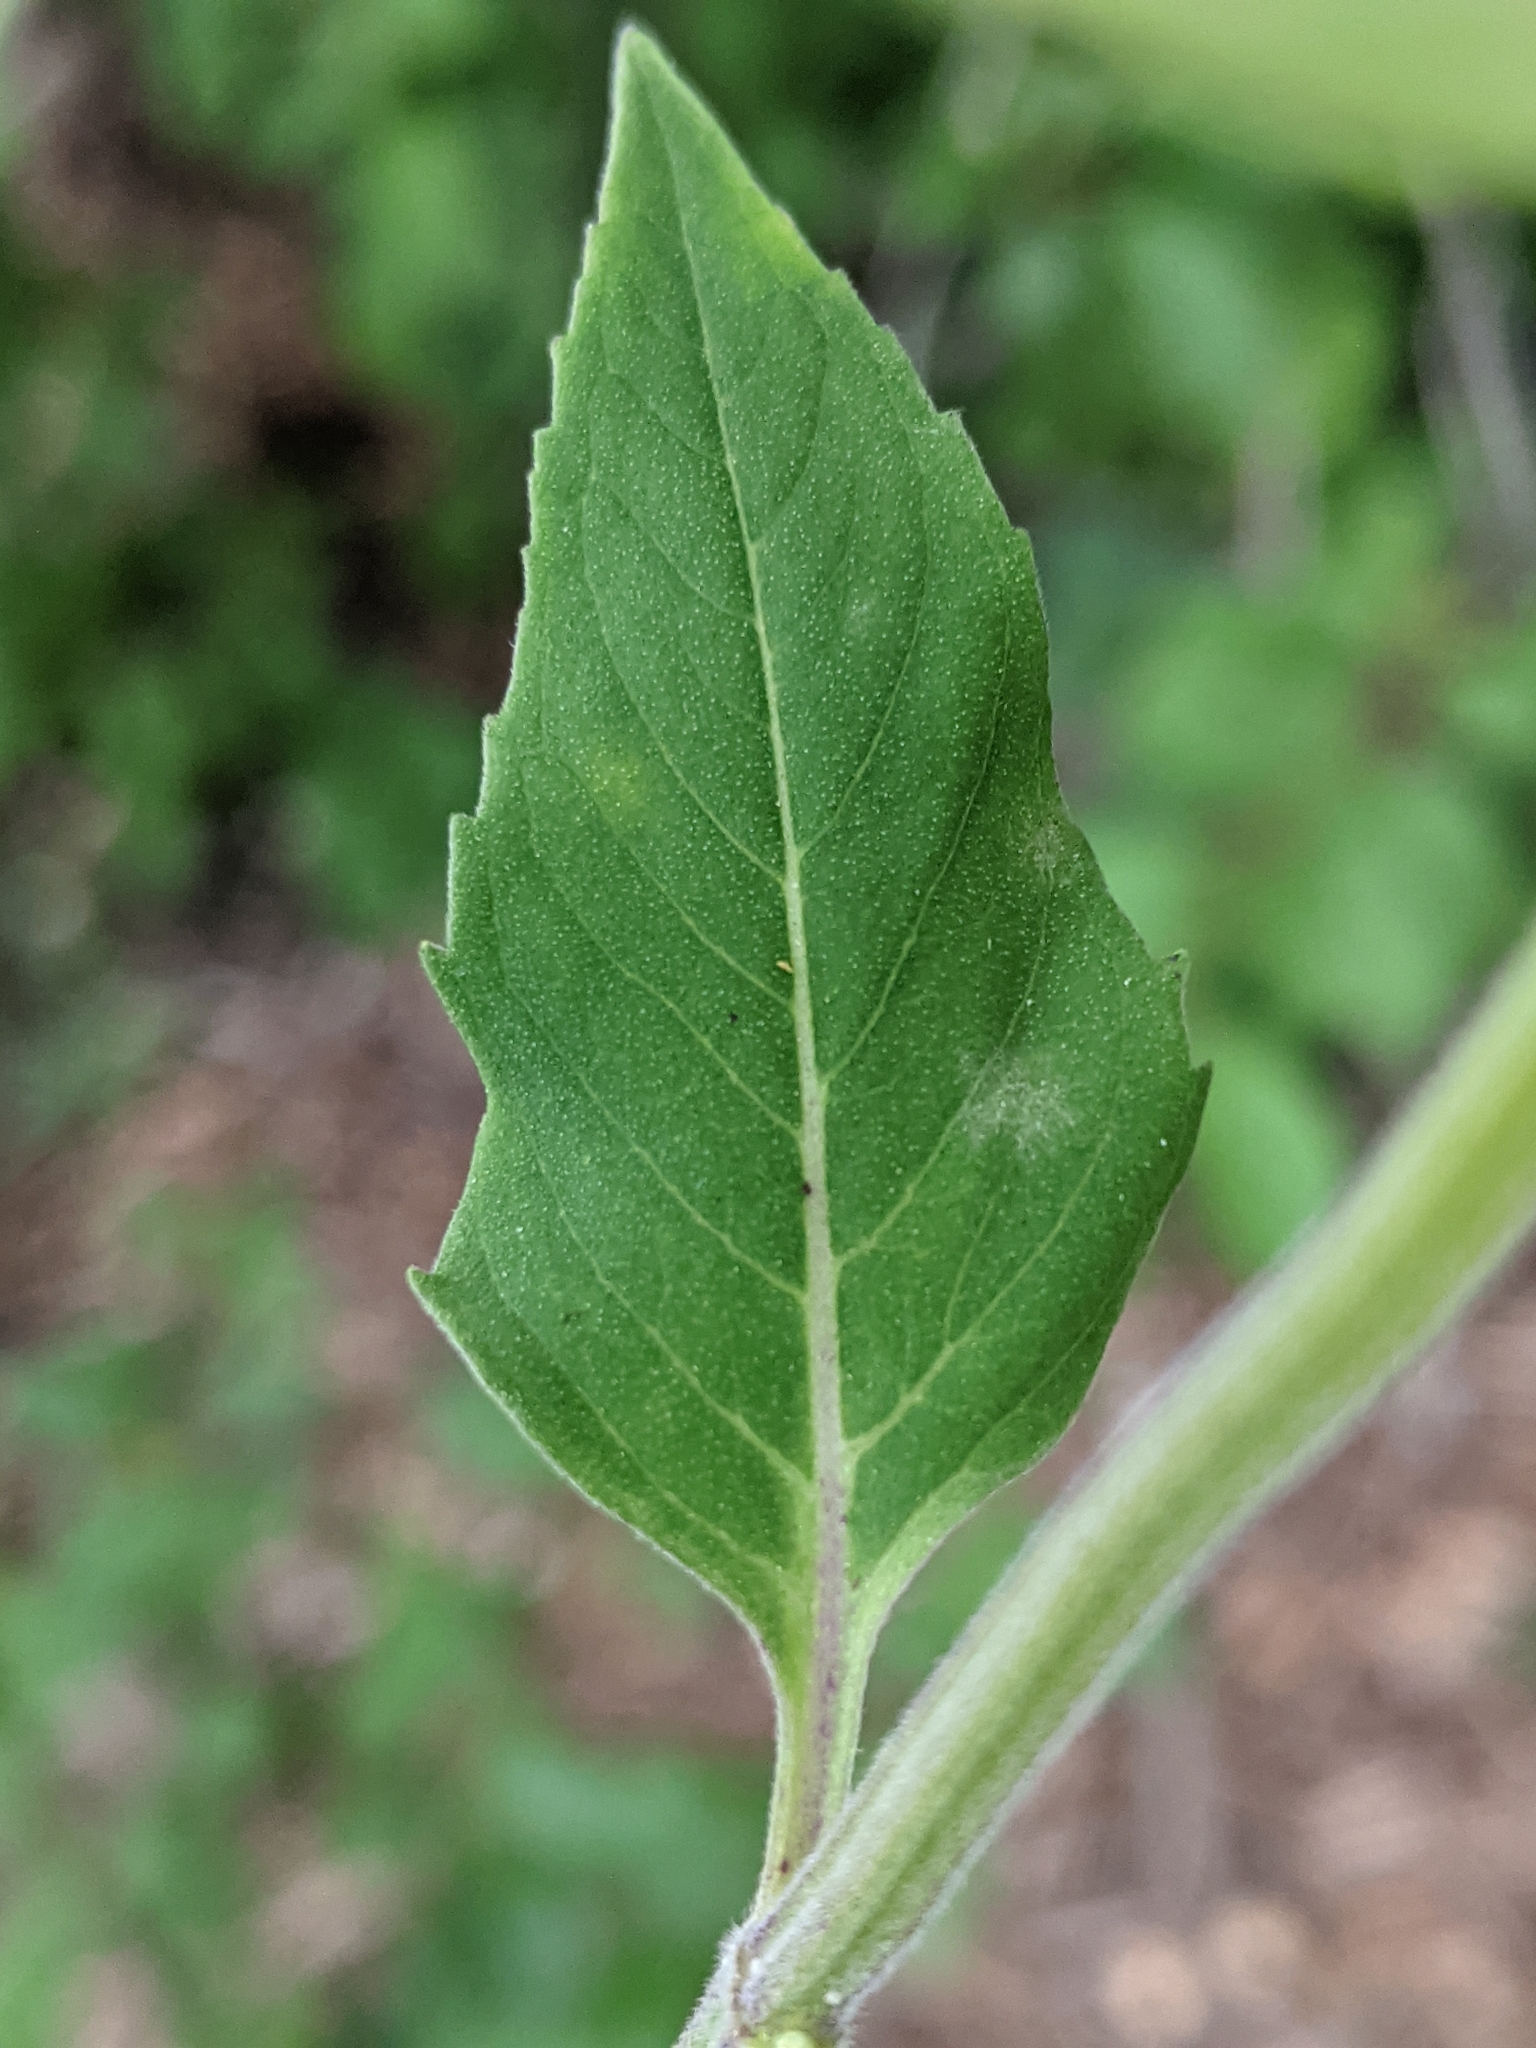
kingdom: Plantae
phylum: Tracheophyta
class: Magnoliopsida
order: Lamiales
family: Lamiaceae
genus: Monarda
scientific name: Monarda fistulosa
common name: Purple beebalm
